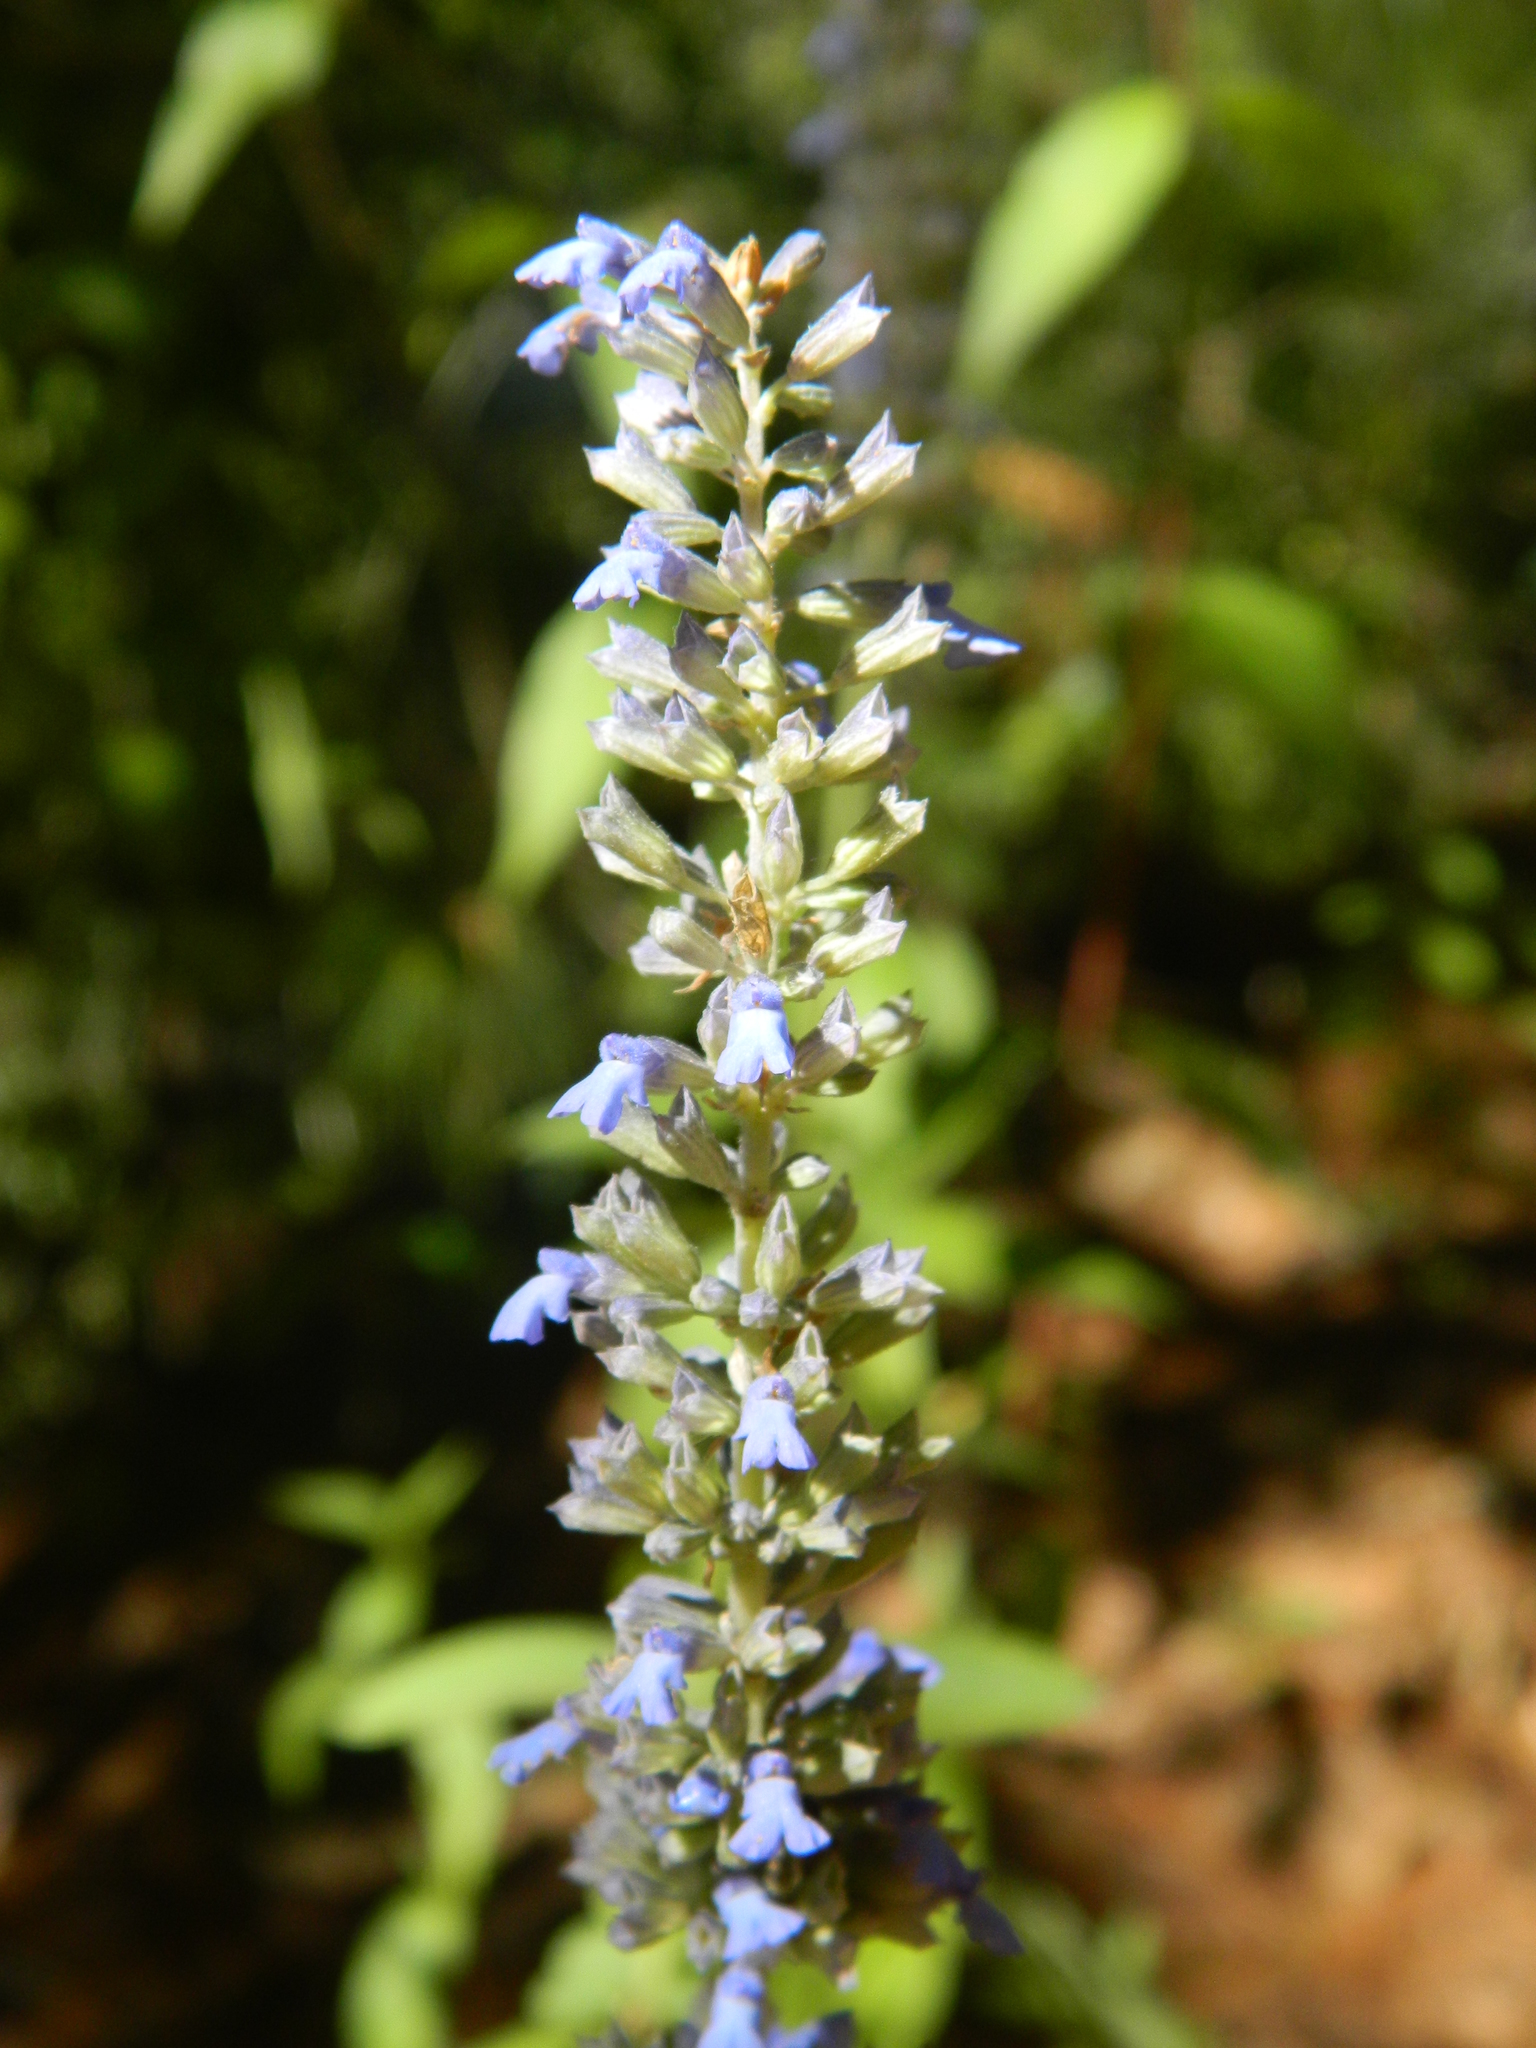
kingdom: Plantae
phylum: Tracheophyta
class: Magnoliopsida
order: Lamiales
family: Lamiaceae
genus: Salvia
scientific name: Salvia lavanduloides
